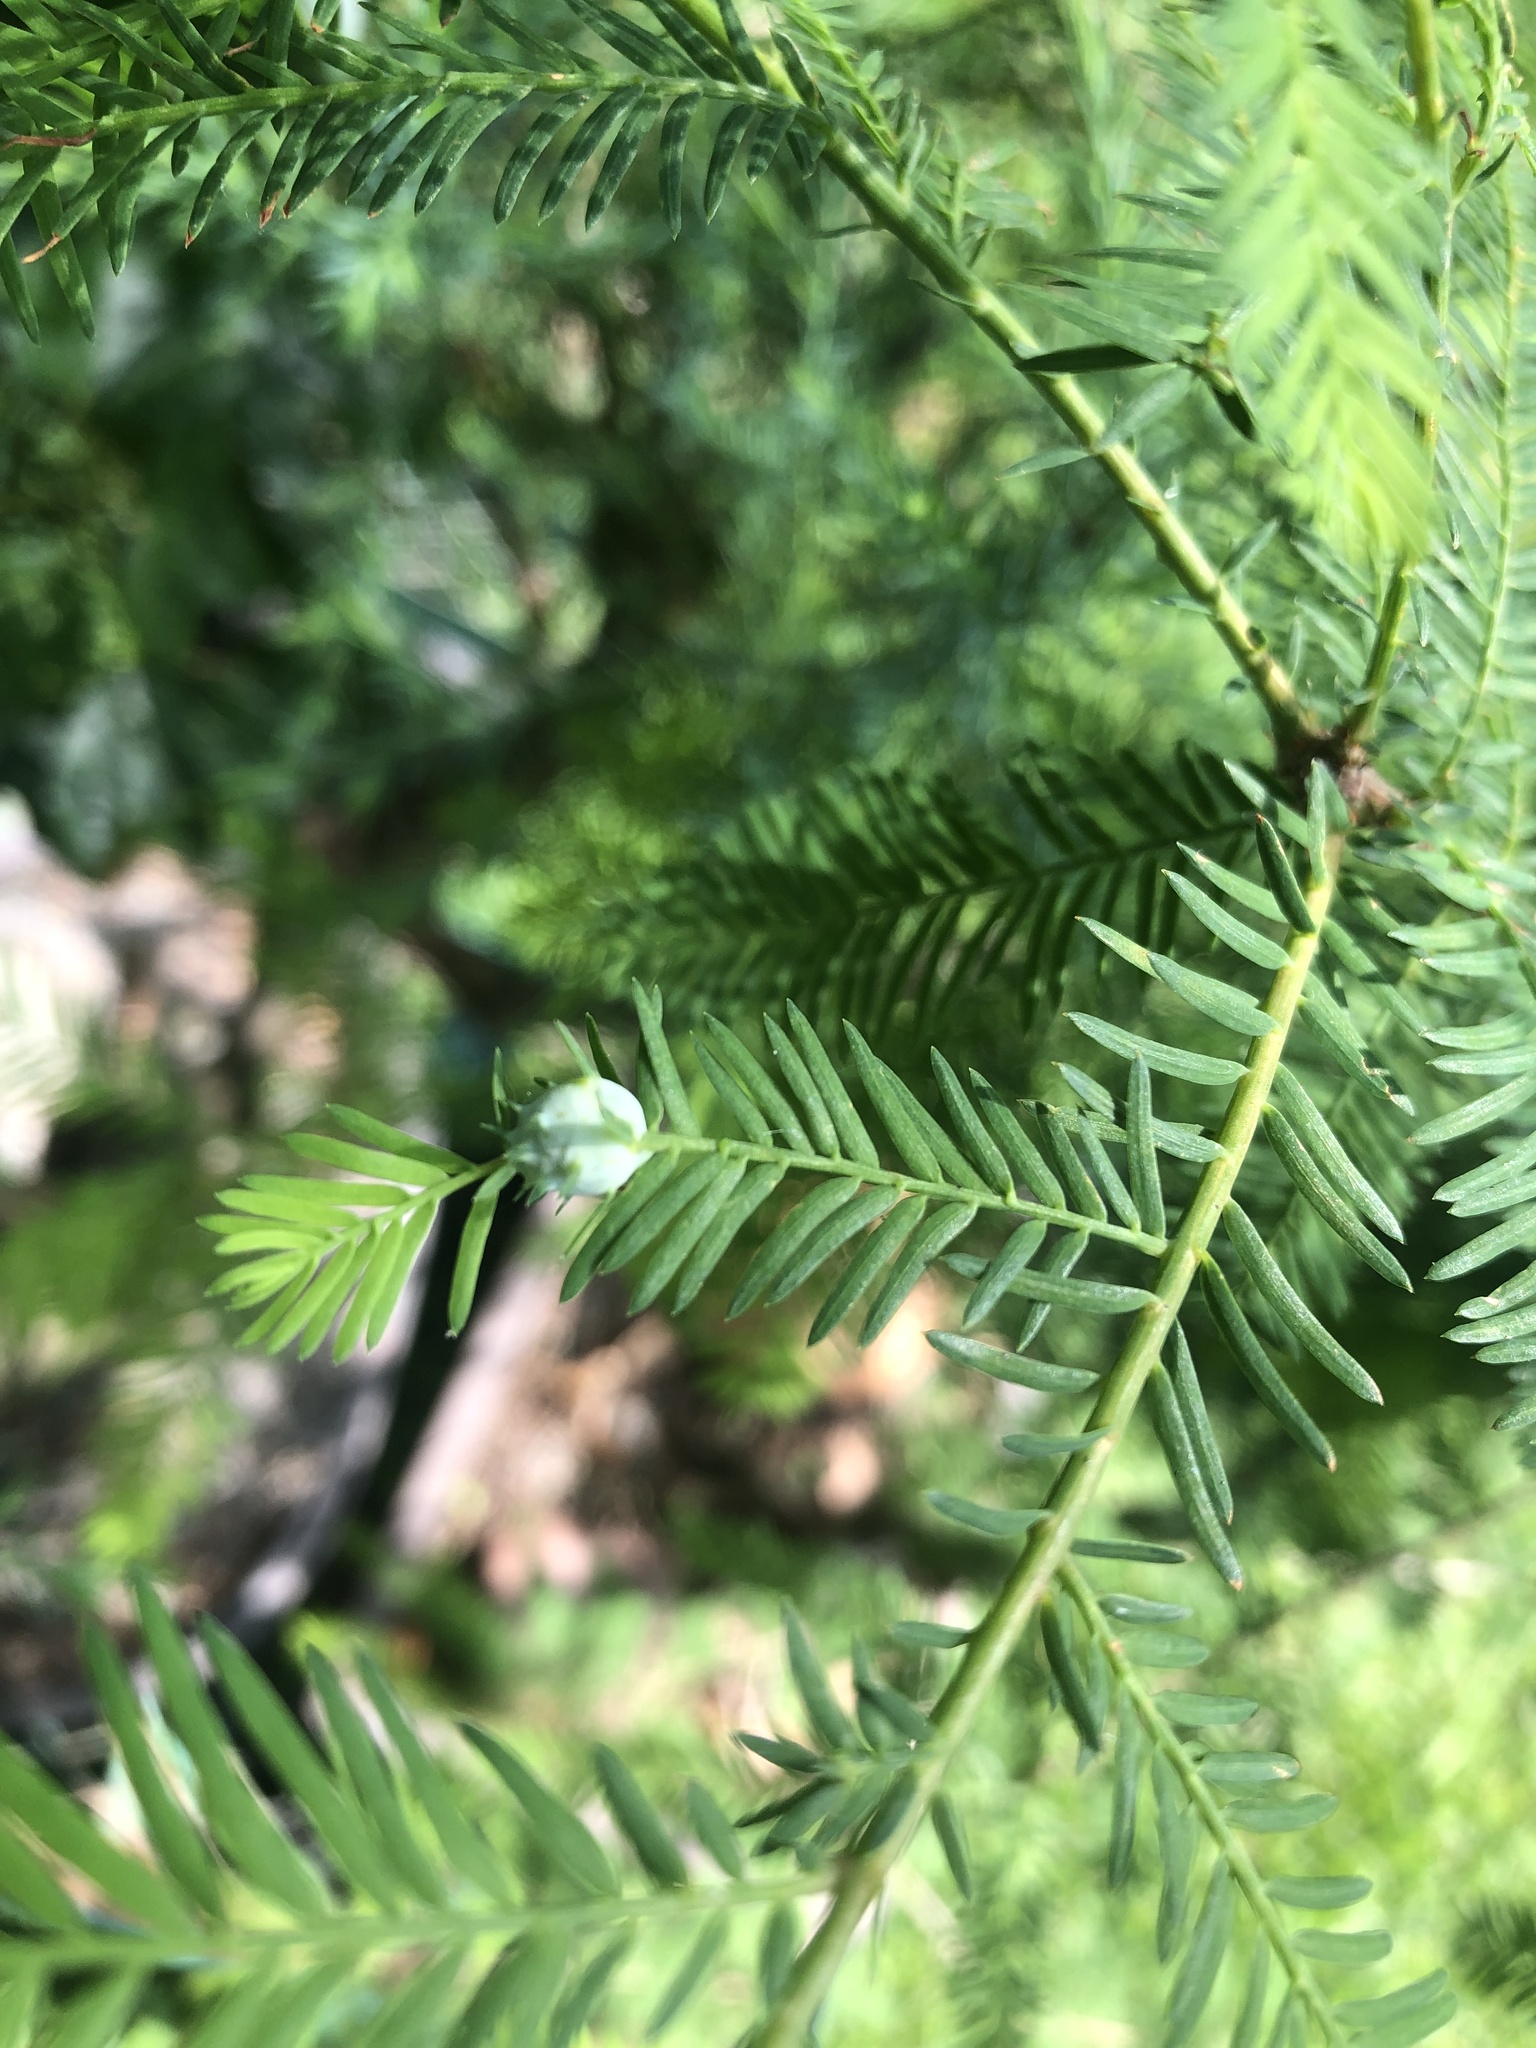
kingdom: Animalia
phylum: Arthropoda
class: Insecta
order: Diptera
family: Cecidomyiidae
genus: Taxodiomyia
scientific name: Taxodiomyia cupressiananassa
